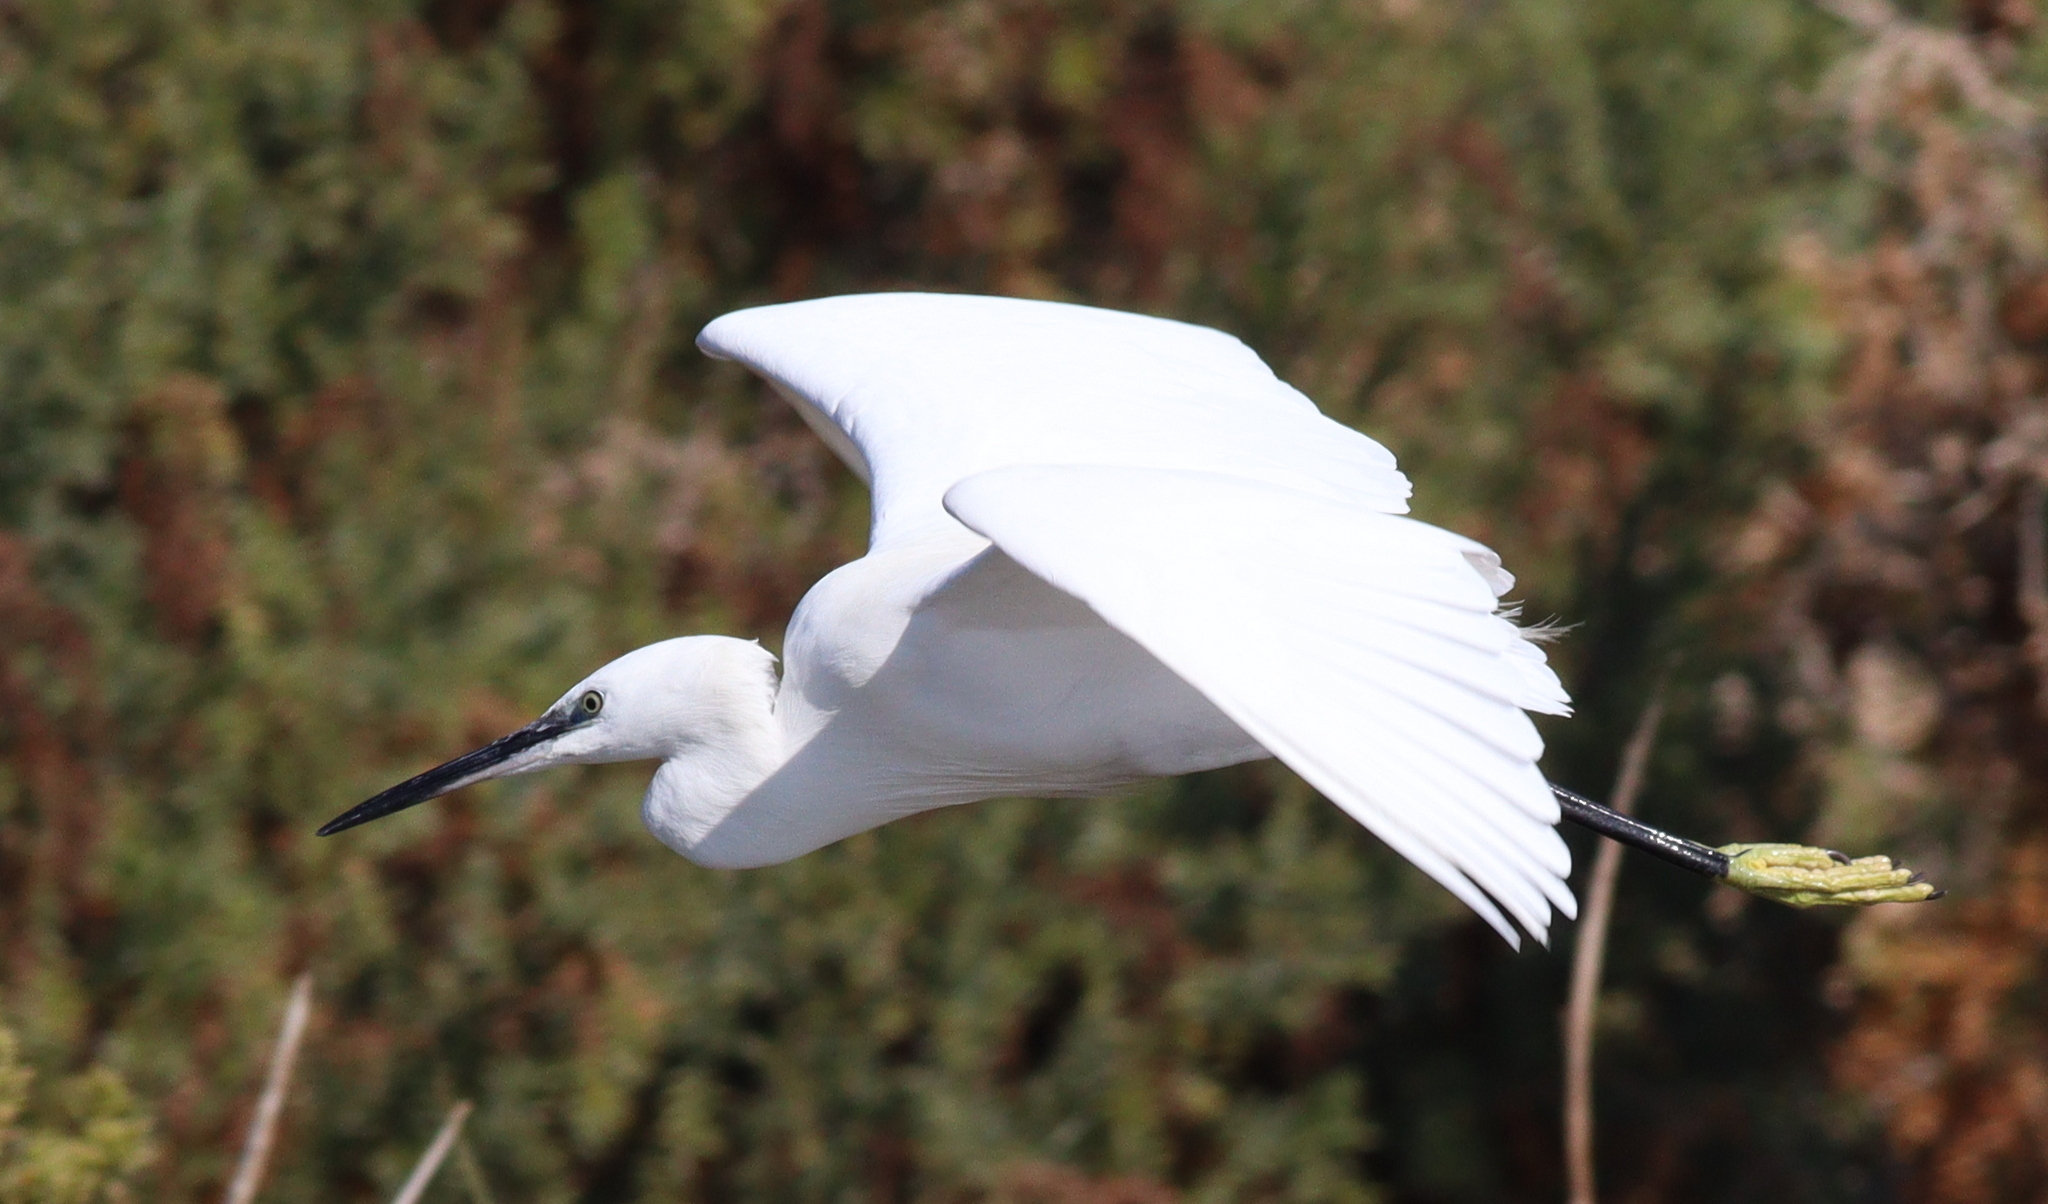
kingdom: Animalia
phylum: Chordata
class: Aves
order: Pelecaniformes
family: Ardeidae
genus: Egretta
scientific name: Egretta garzetta
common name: Little egret
